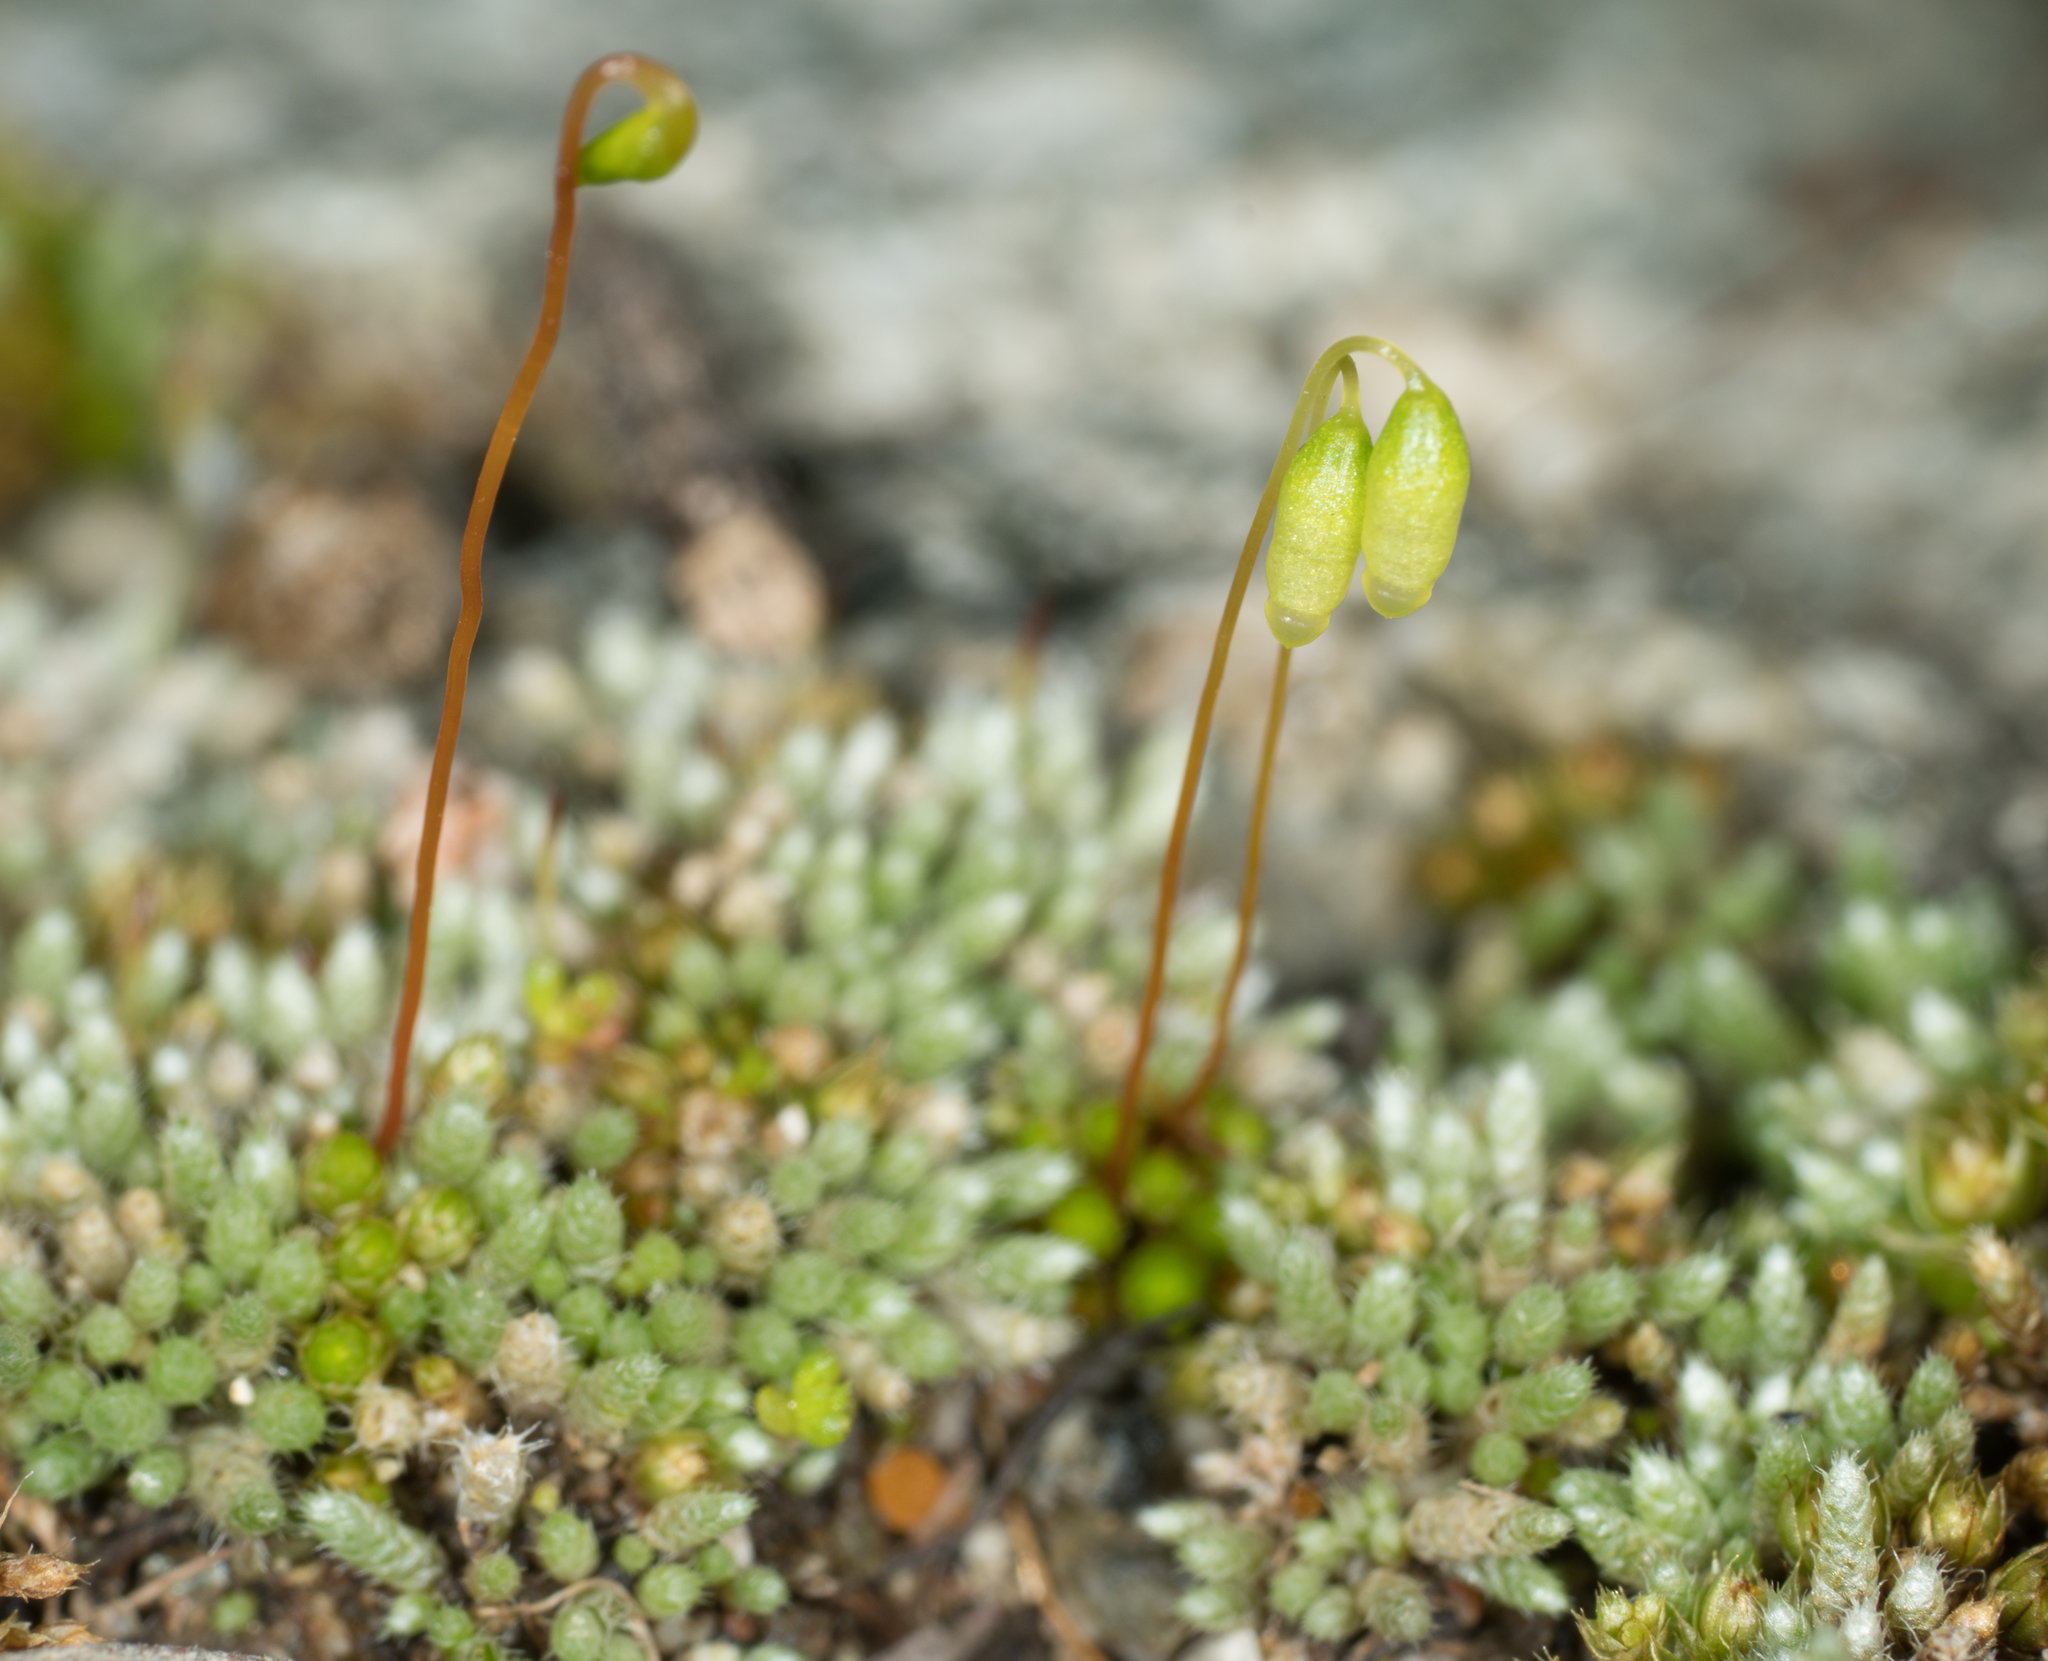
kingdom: Plantae
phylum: Bryophyta
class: Bryopsida
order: Bryales
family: Bryaceae
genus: Bryum
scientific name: Bryum argenteum
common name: Silver-moss
